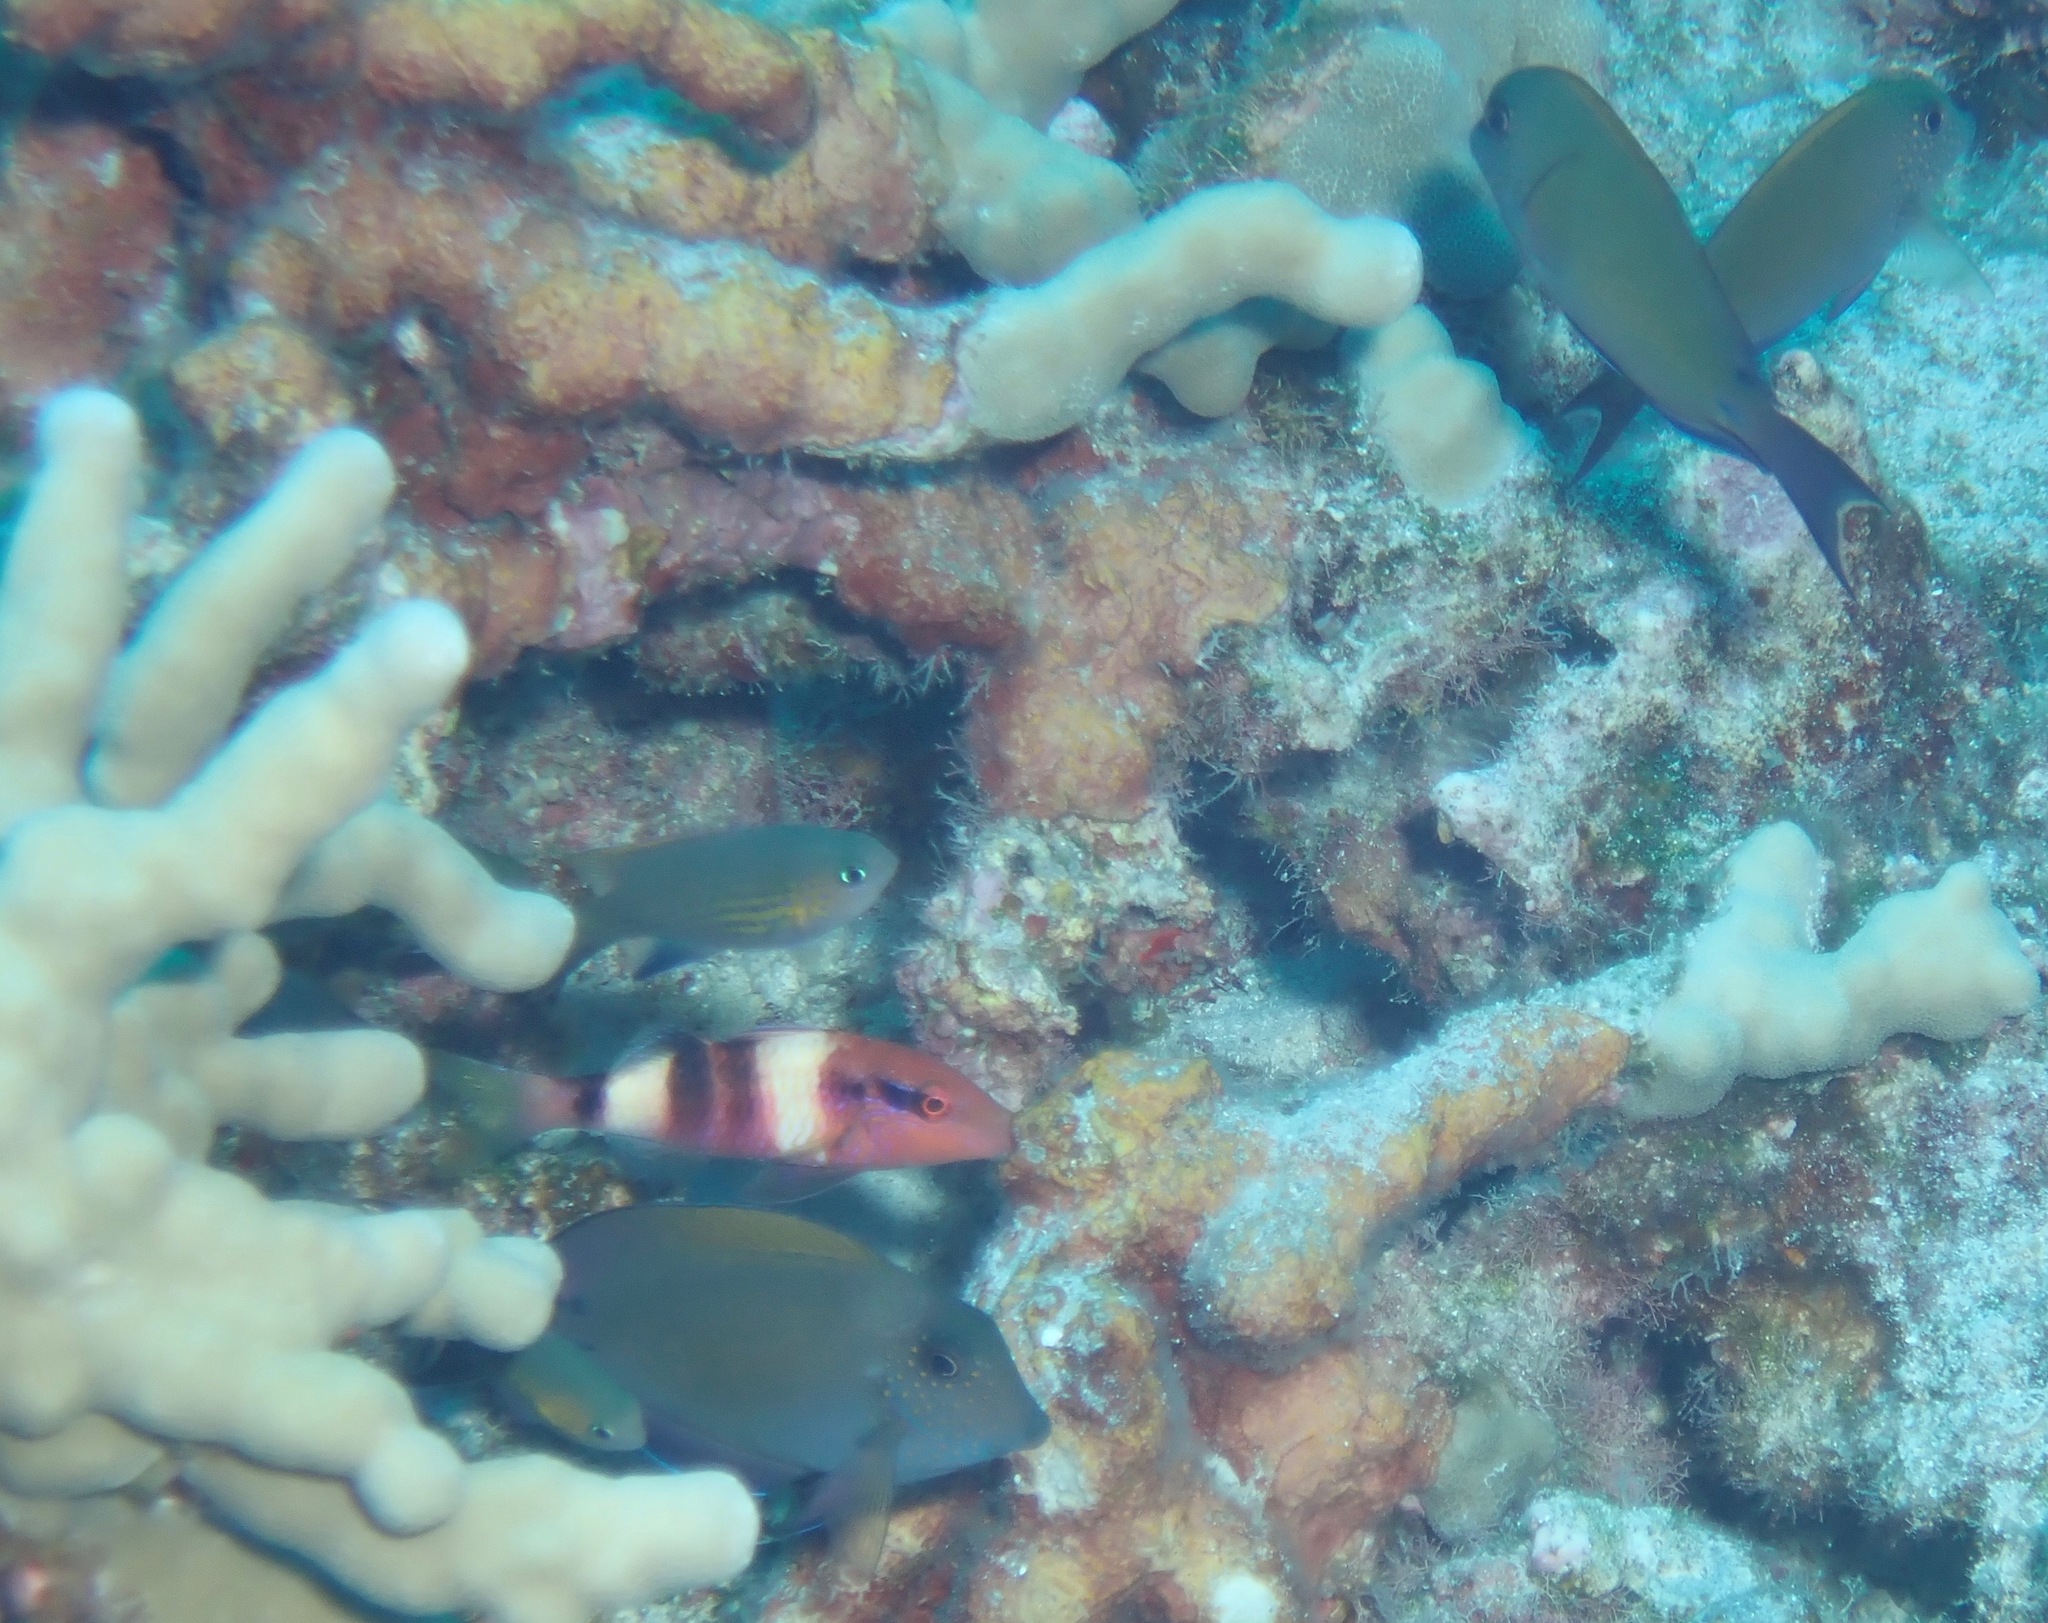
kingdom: Animalia
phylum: Chordata
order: Perciformes
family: Mullidae
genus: Parupeneus
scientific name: Parupeneus multifasciatus
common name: Manybar goatfish
